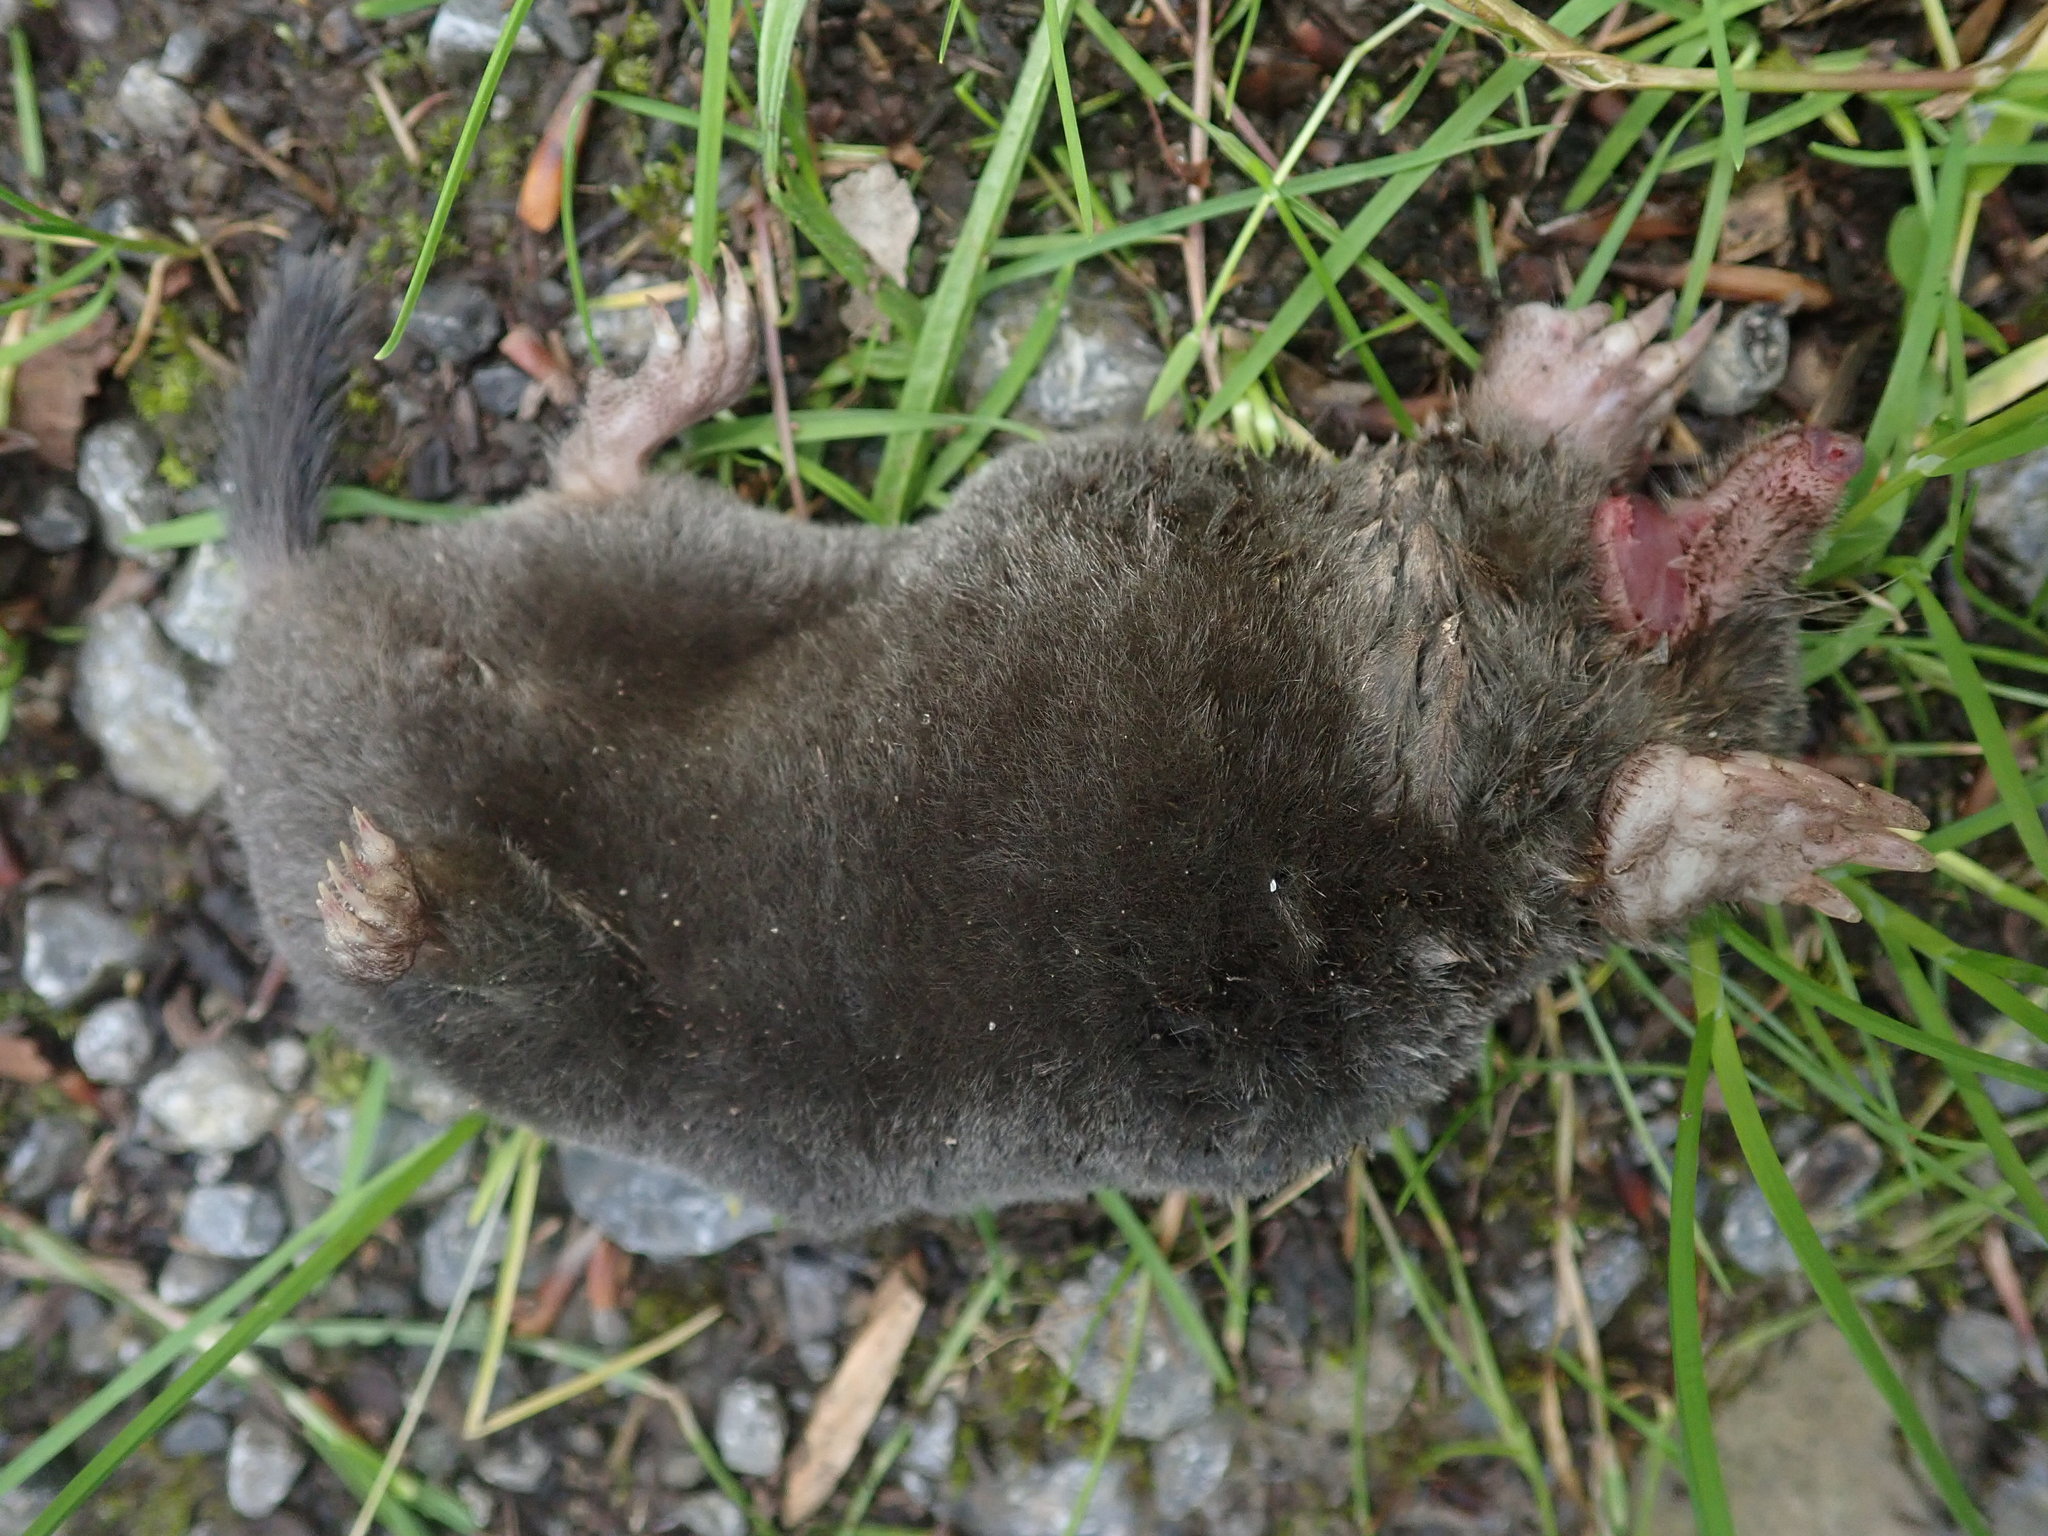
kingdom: Animalia
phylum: Chordata
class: Mammalia
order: Soricomorpha
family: Talpidae
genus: Talpa
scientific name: Talpa europaea
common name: European mole
